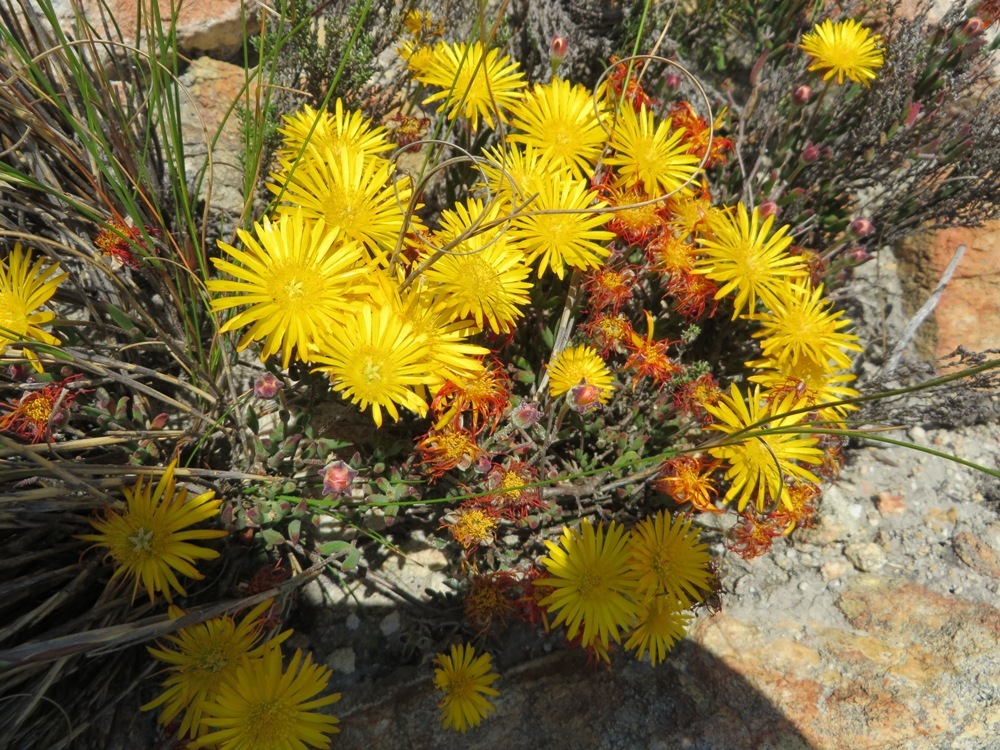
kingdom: Plantae
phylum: Tracheophyta
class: Magnoliopsida
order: Caryophyllales
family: Aizoaceae
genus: Drosanthemum
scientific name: Drosanthemum flavum
